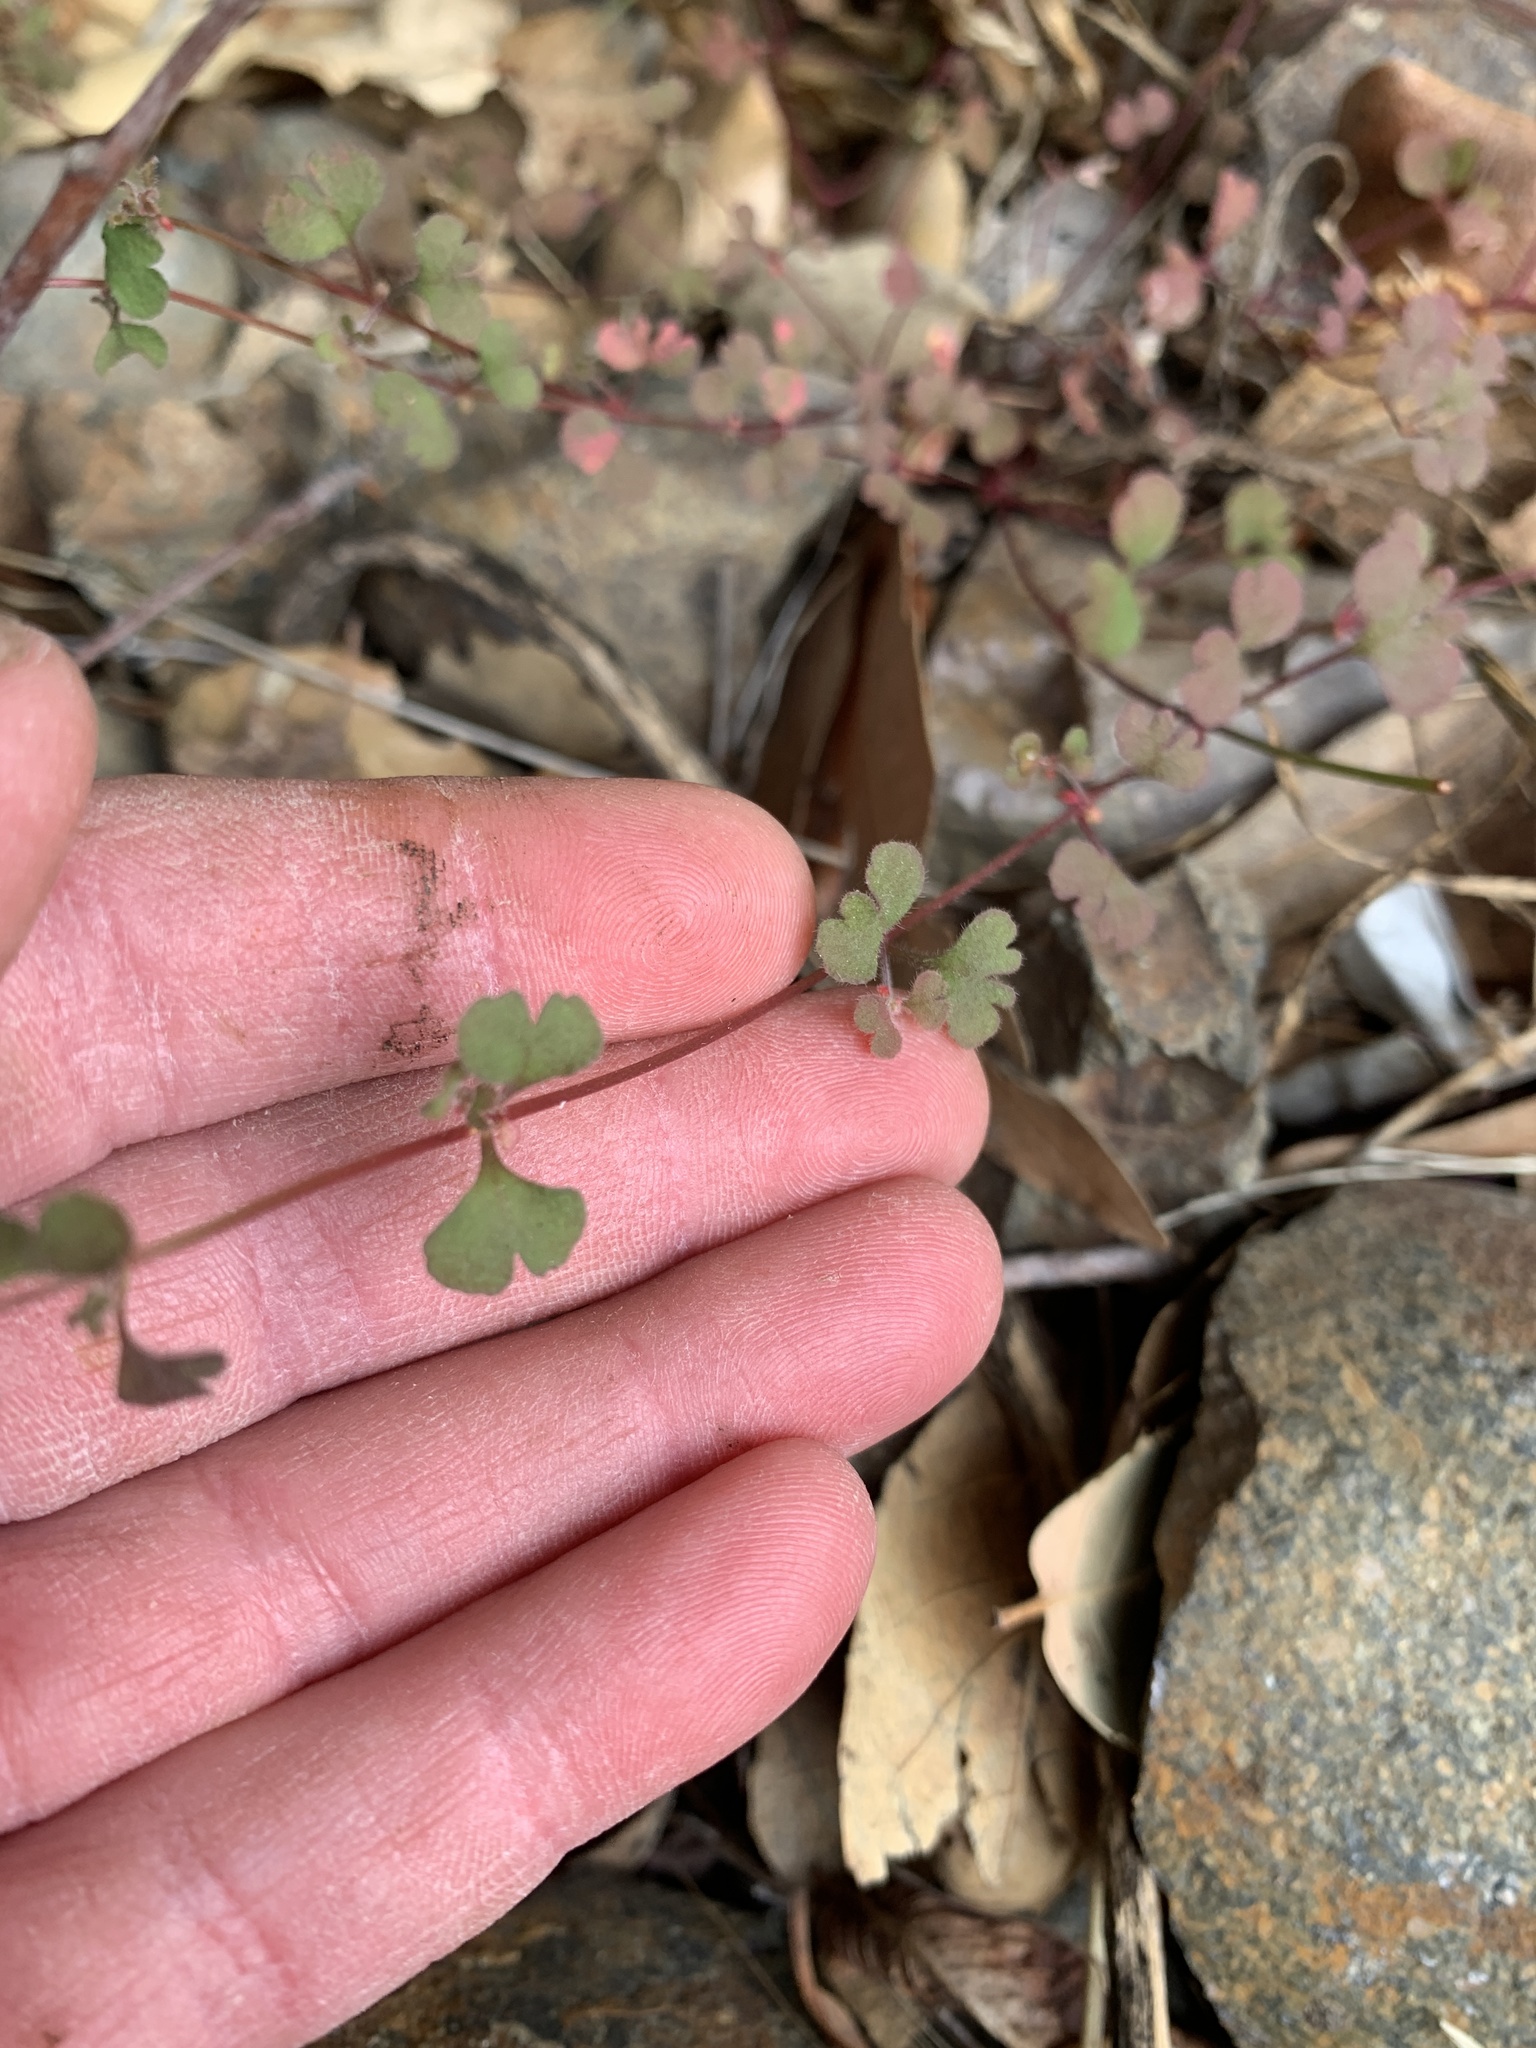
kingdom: Plantae
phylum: Tracheophyta
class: Magnoliopsida
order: Caryophyllales
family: Polygonaceae
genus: Pterostegia
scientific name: Pterostegia drymarioides
